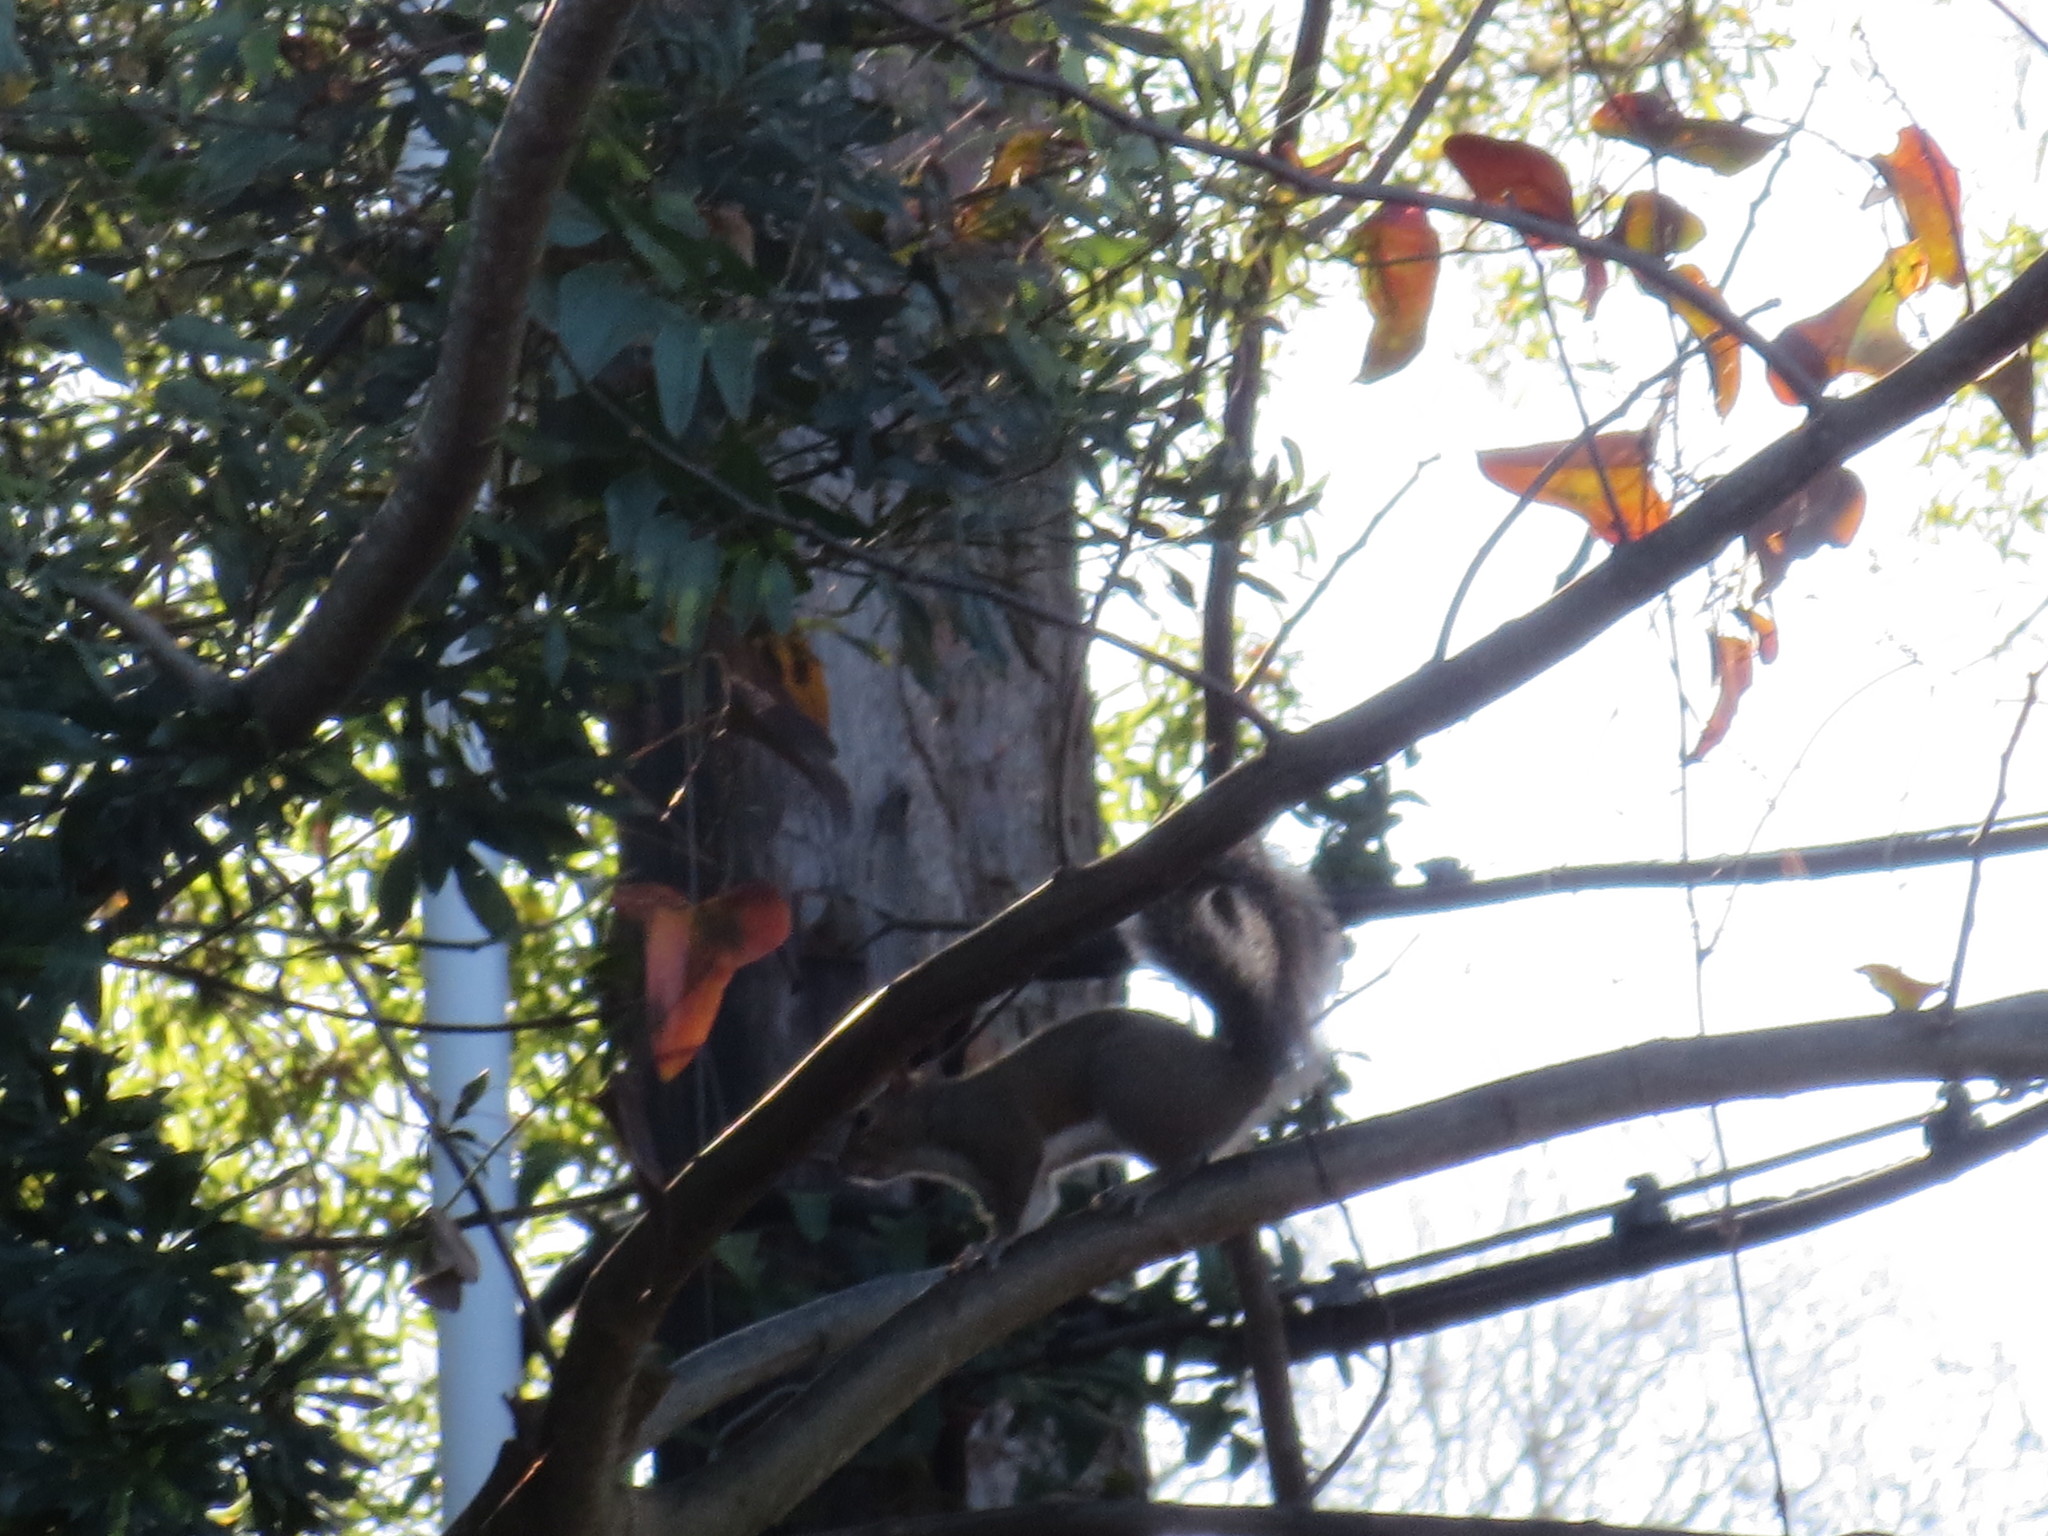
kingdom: Animalia
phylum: Chordata
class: Mammalia
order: Rodentia
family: Sciuridae
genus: Sciurus
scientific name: Sciurus carolinensis
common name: Eastern gray squirrel
